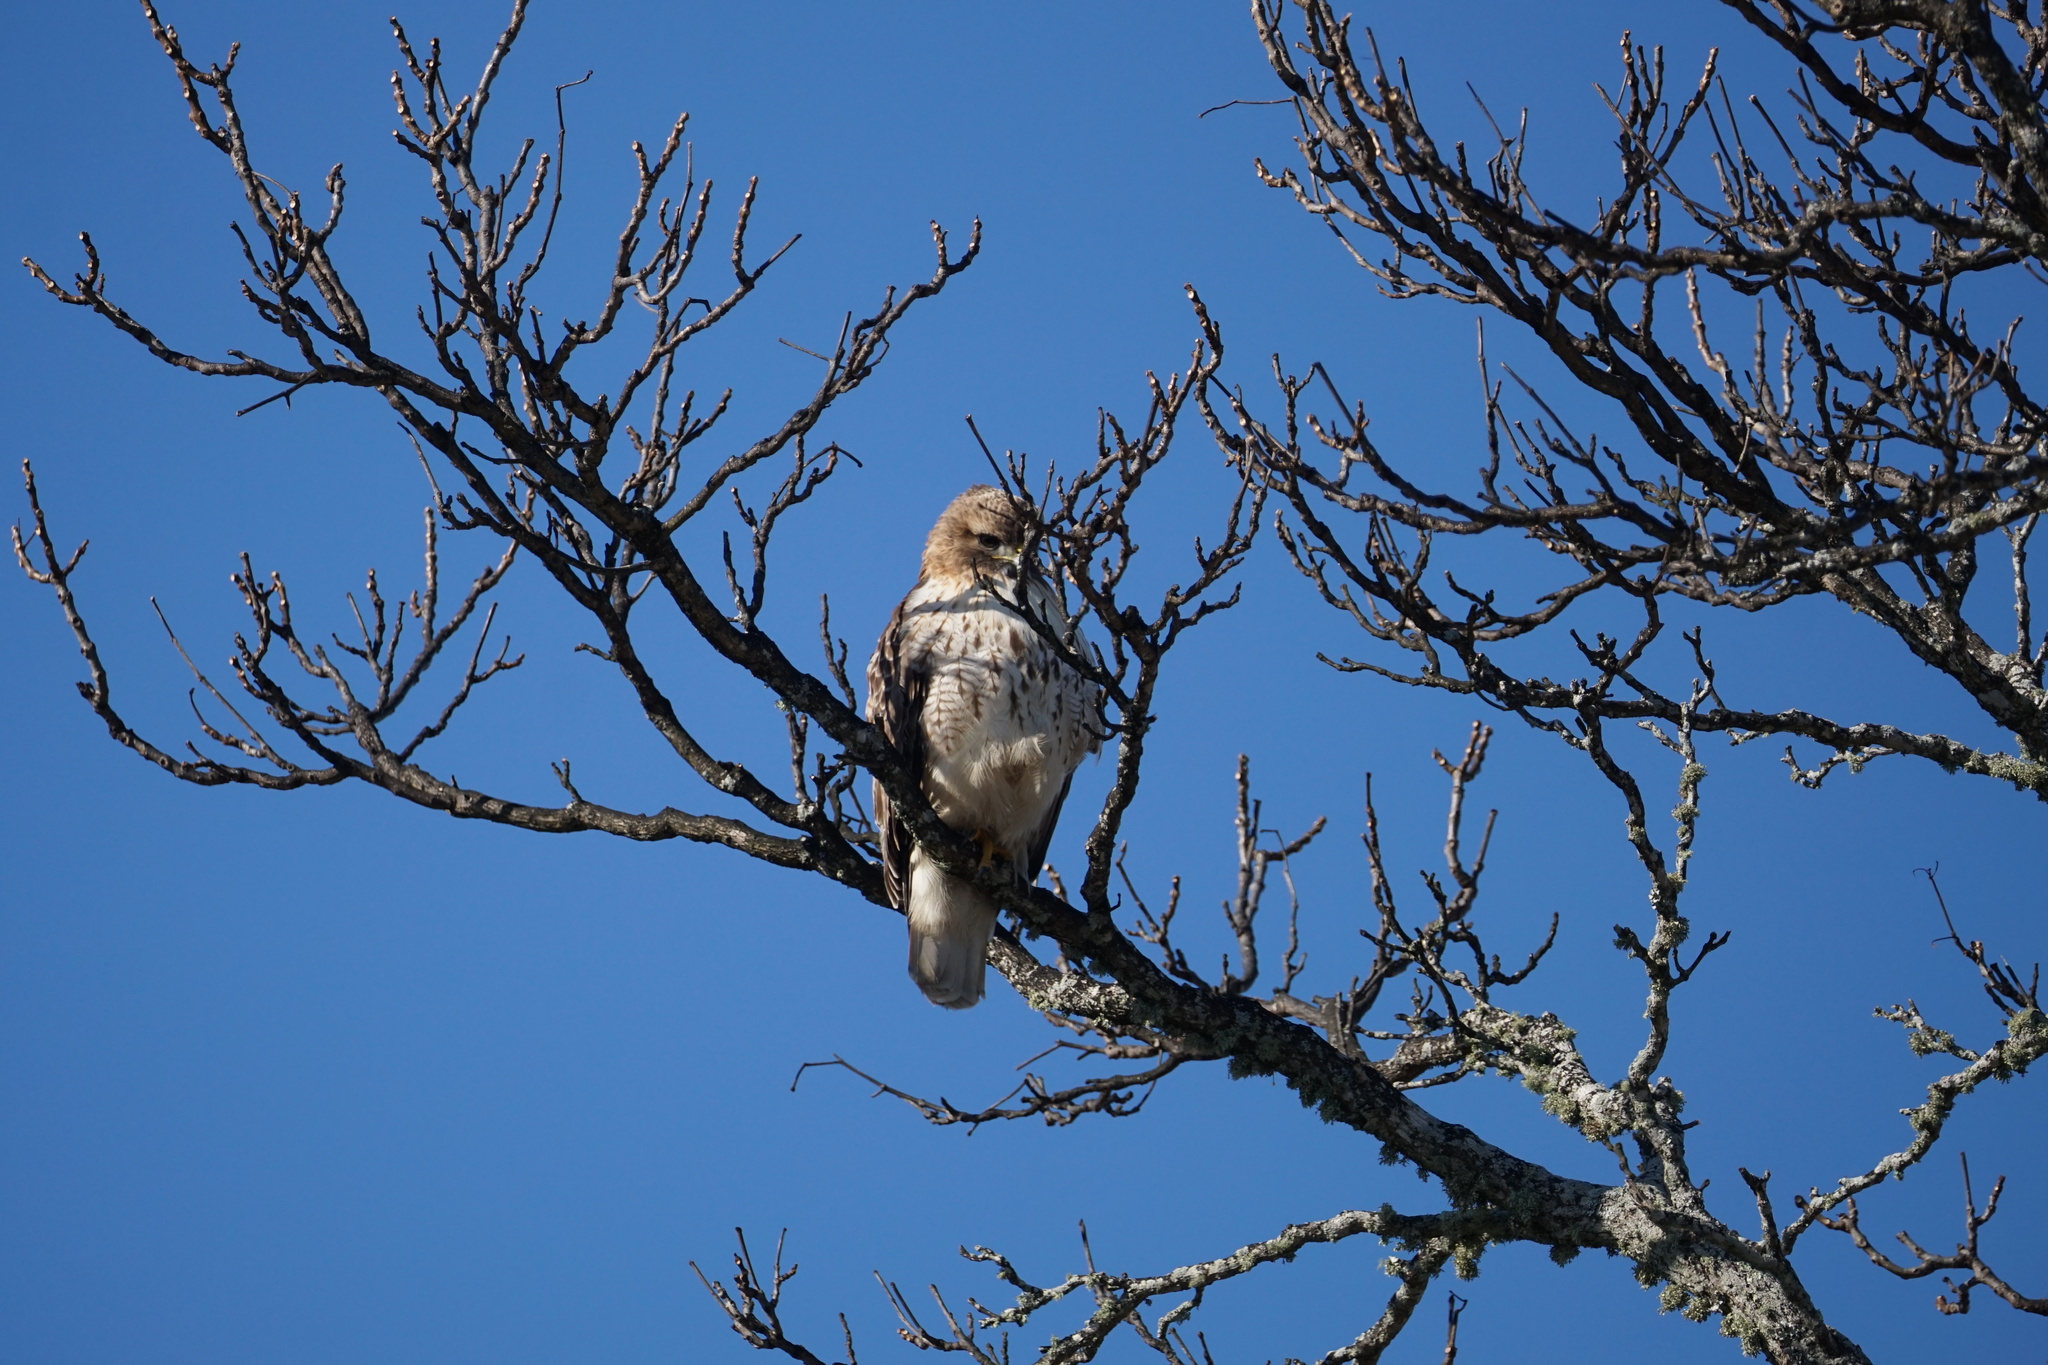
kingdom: Animalia
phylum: Chordata
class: Aves
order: Accipitriformes
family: Accipitridae
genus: Buteo
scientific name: Buteo jamaicensis
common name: Red-tailed hawk
